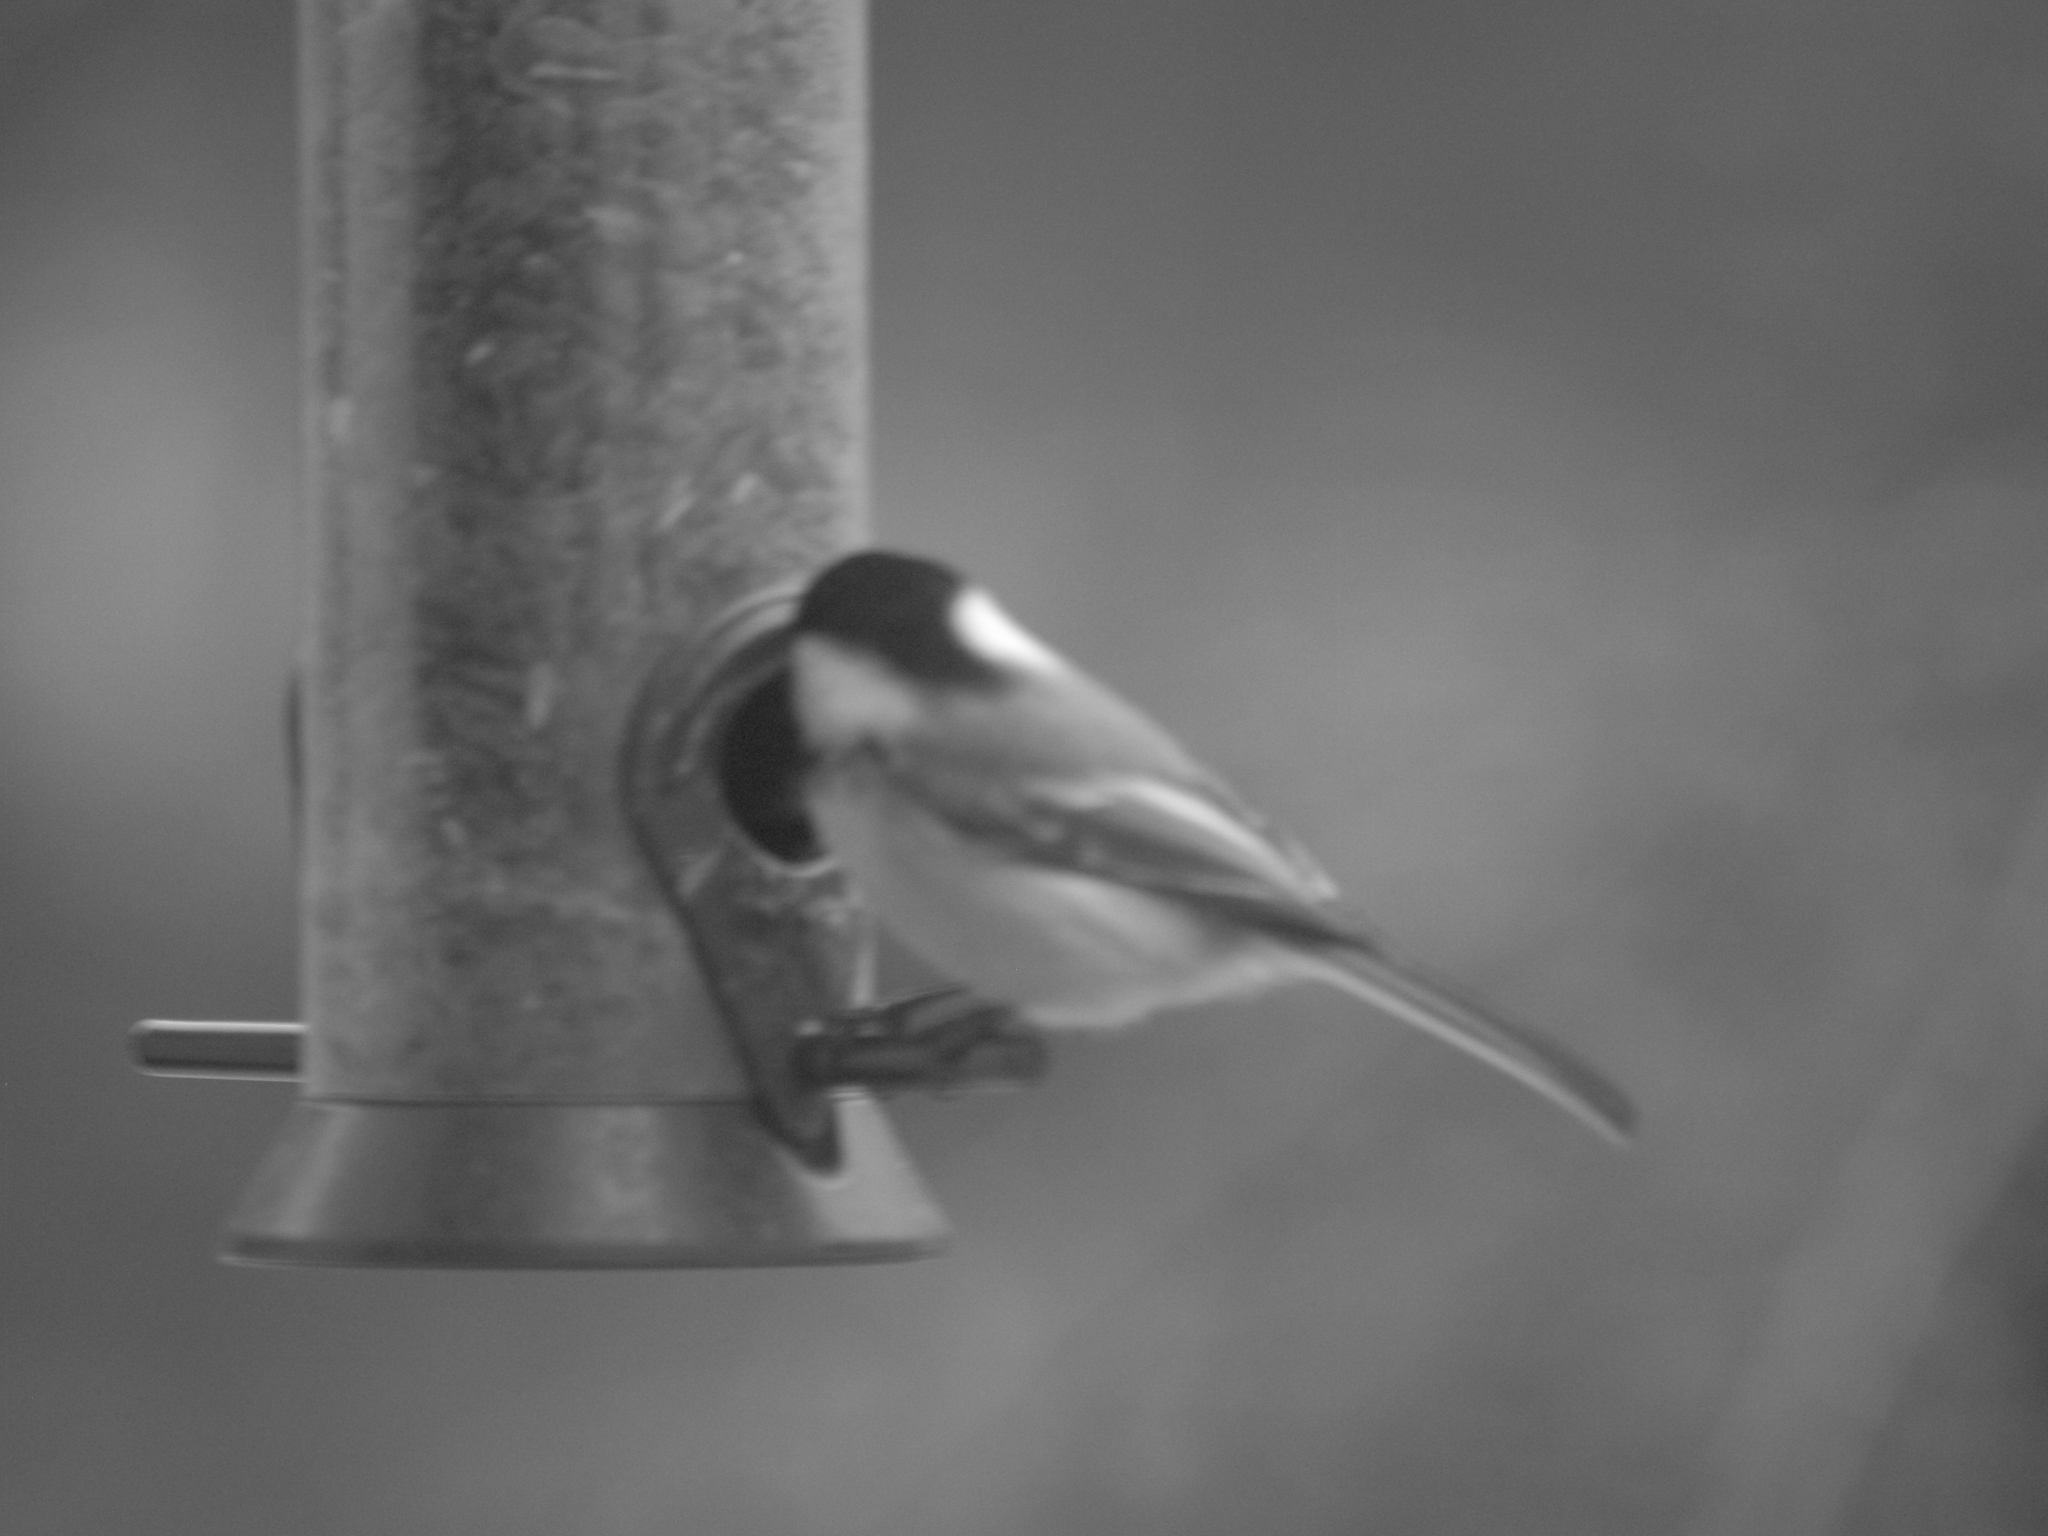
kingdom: Animalia
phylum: Chordata
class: Aves
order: Passeriformes
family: Paridae
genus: Poecile
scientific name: Poecile atricapillus
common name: Black-capped chickadee
